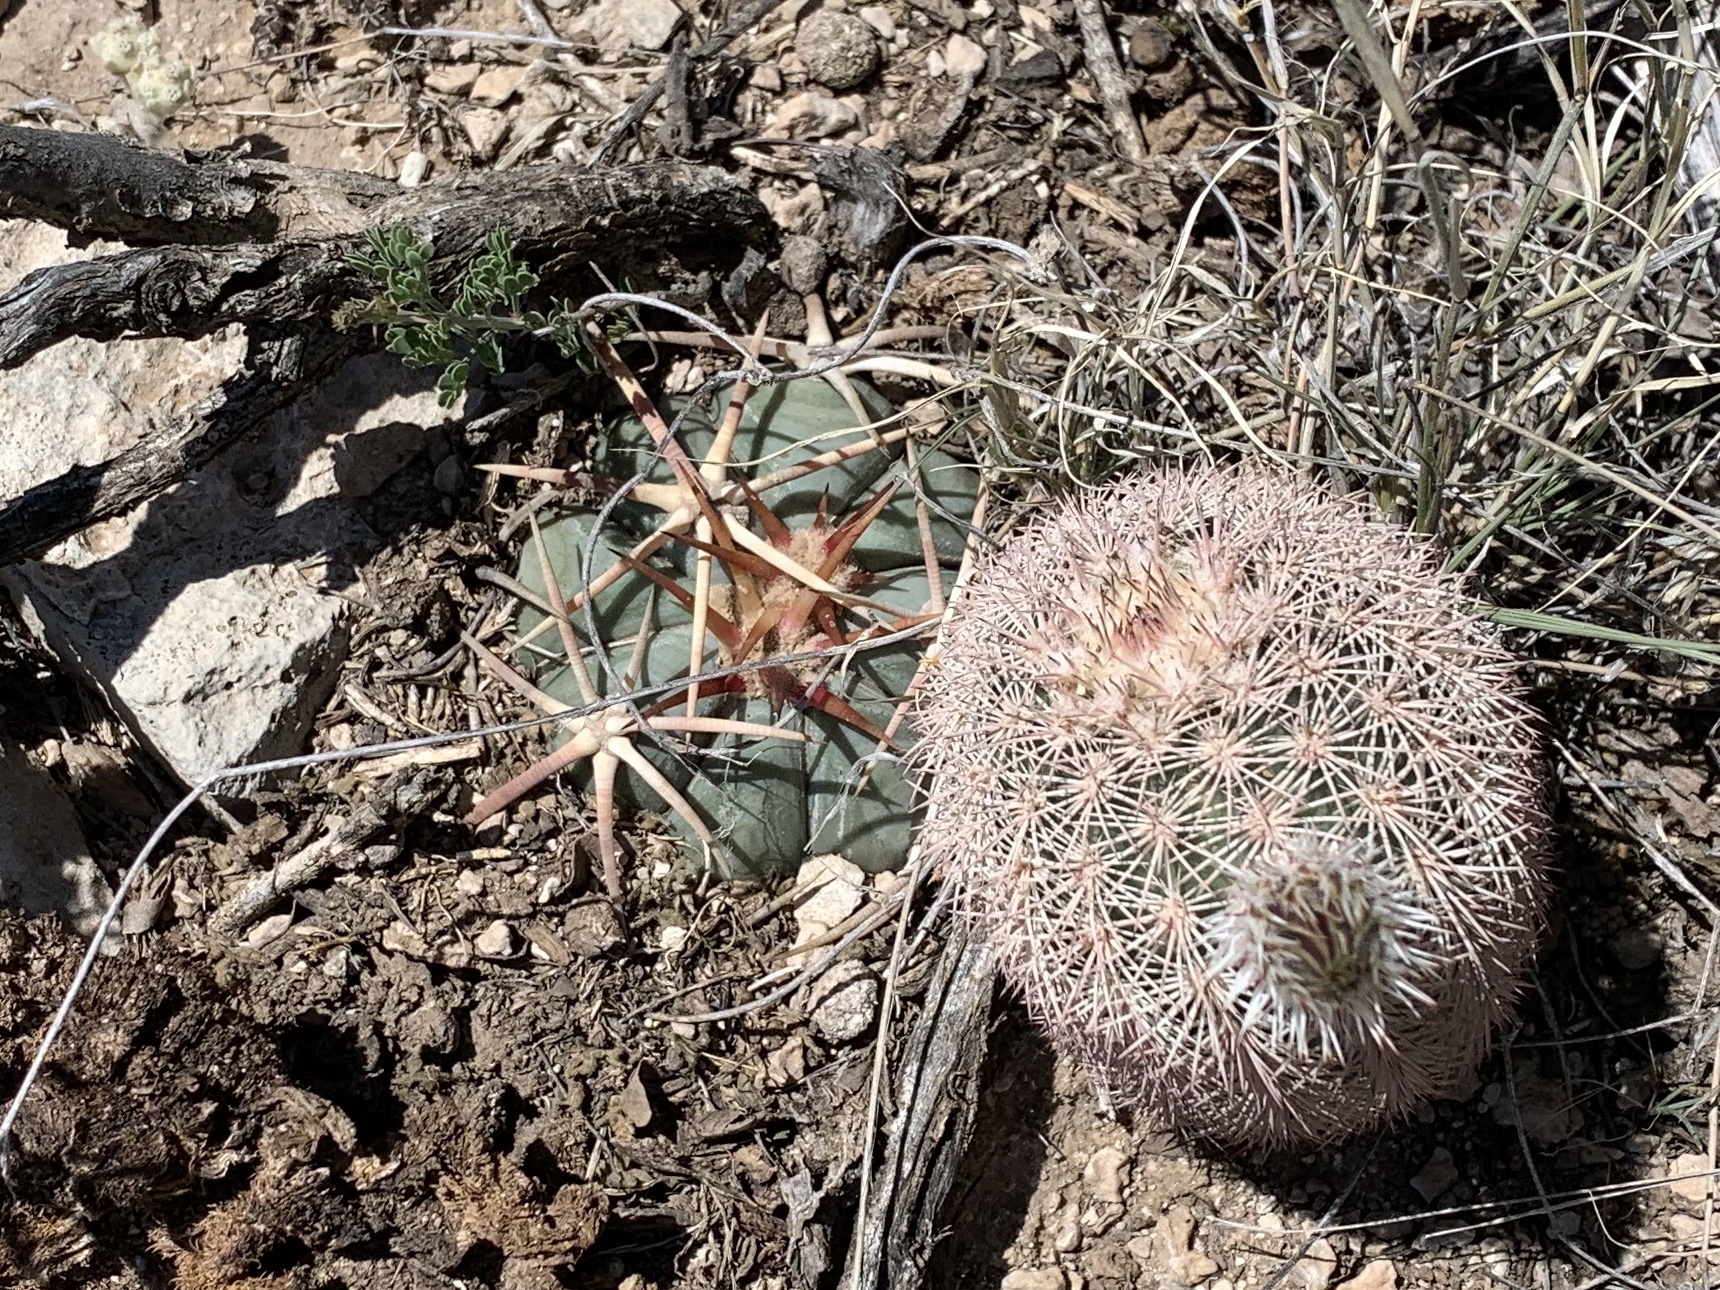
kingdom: Plantae
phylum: Tracheophyta
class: Magnoliopsida
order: Caryophyllales
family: Cactaceae
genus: Echinocactus
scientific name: Echinocactus horizonthalonius
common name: Devilshead
